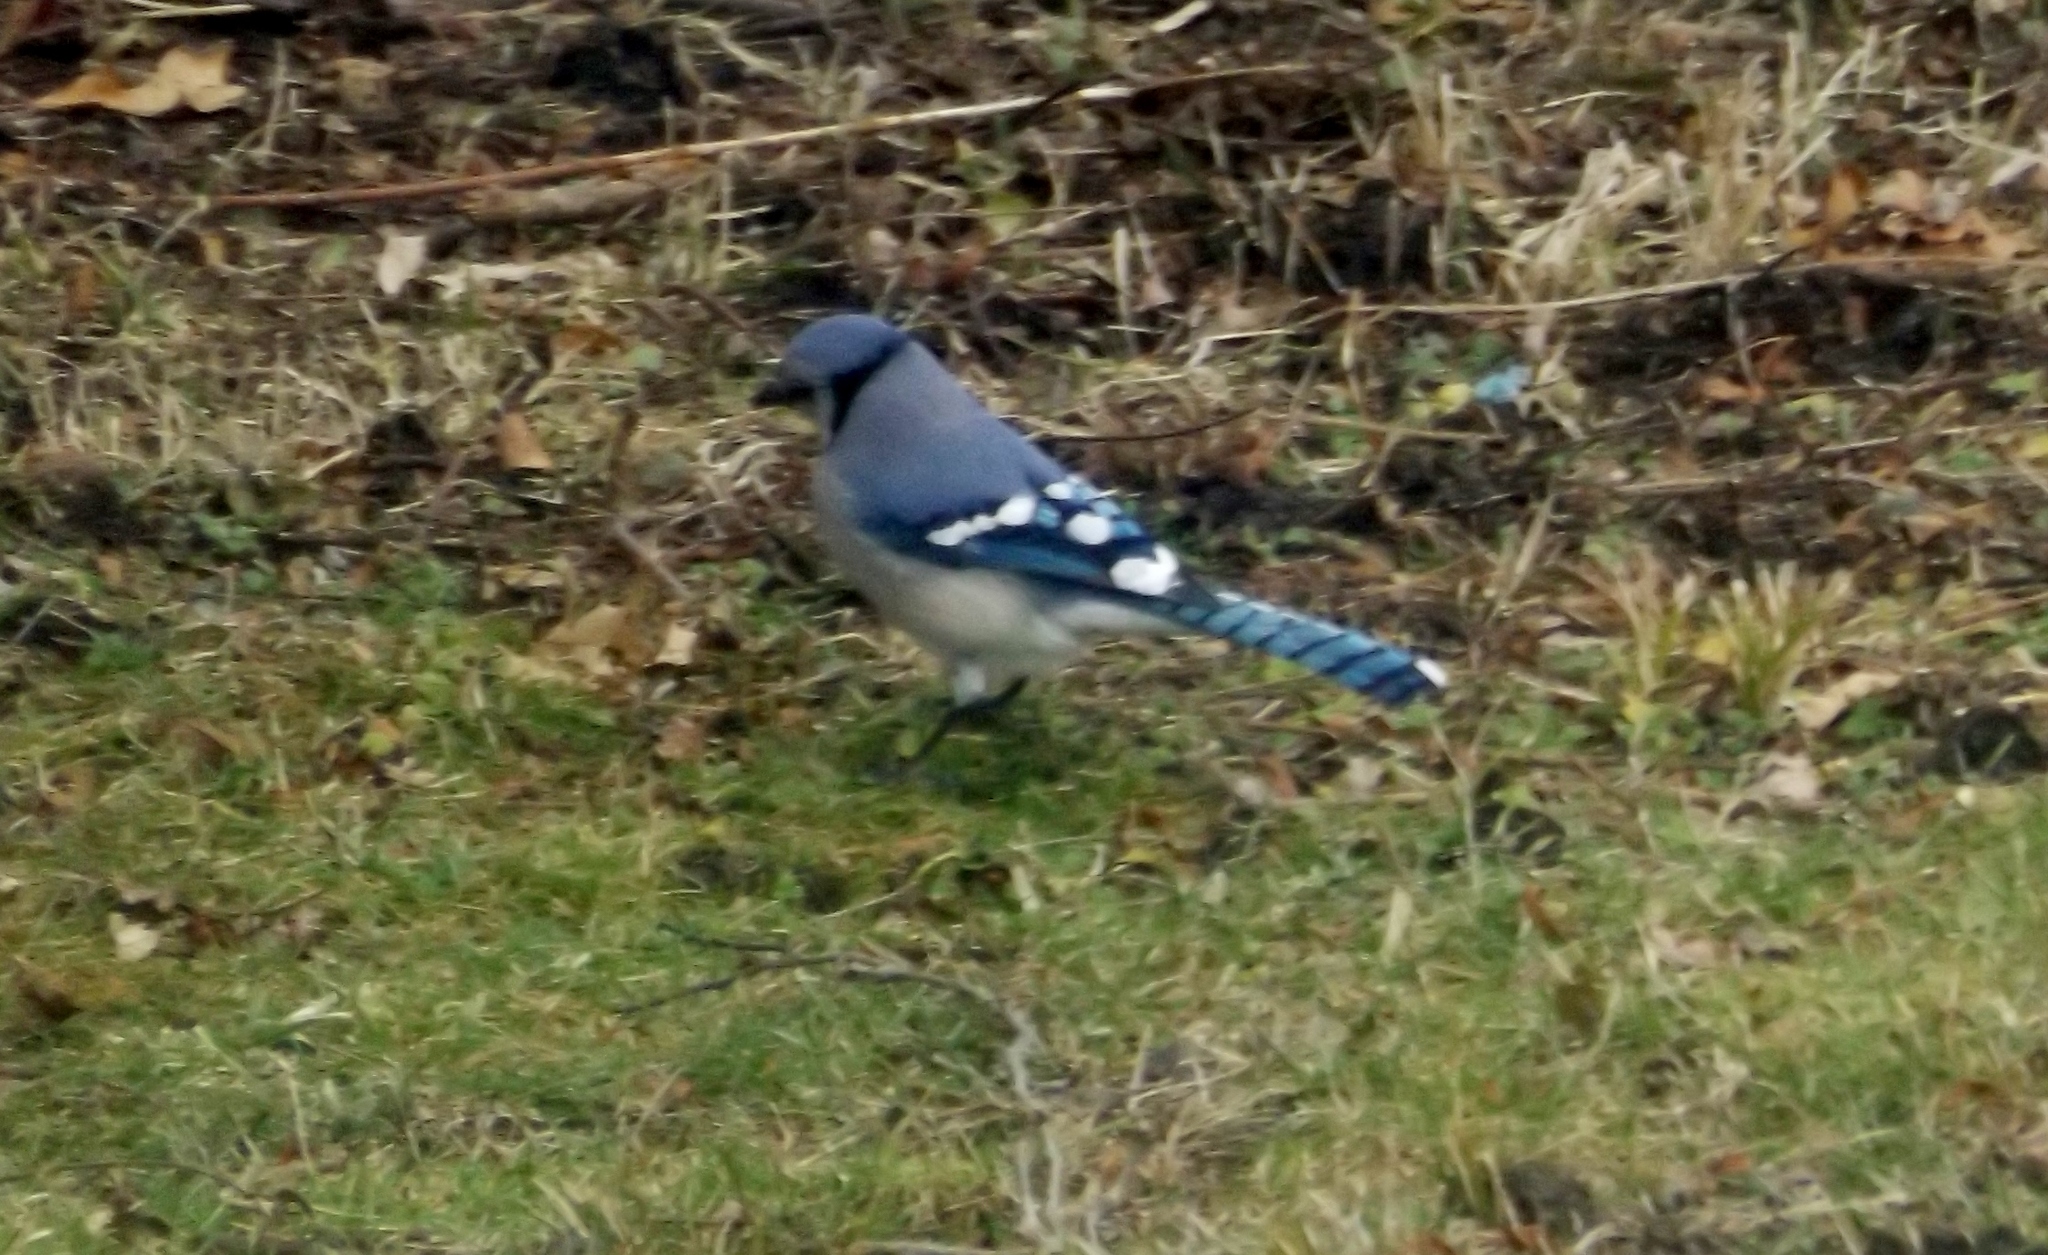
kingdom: Animalia
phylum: Chordata
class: Aves
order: Passeriformes
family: Corvidae
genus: Cyanocitta
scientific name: Cyanocitta cristata
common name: Blue jay
